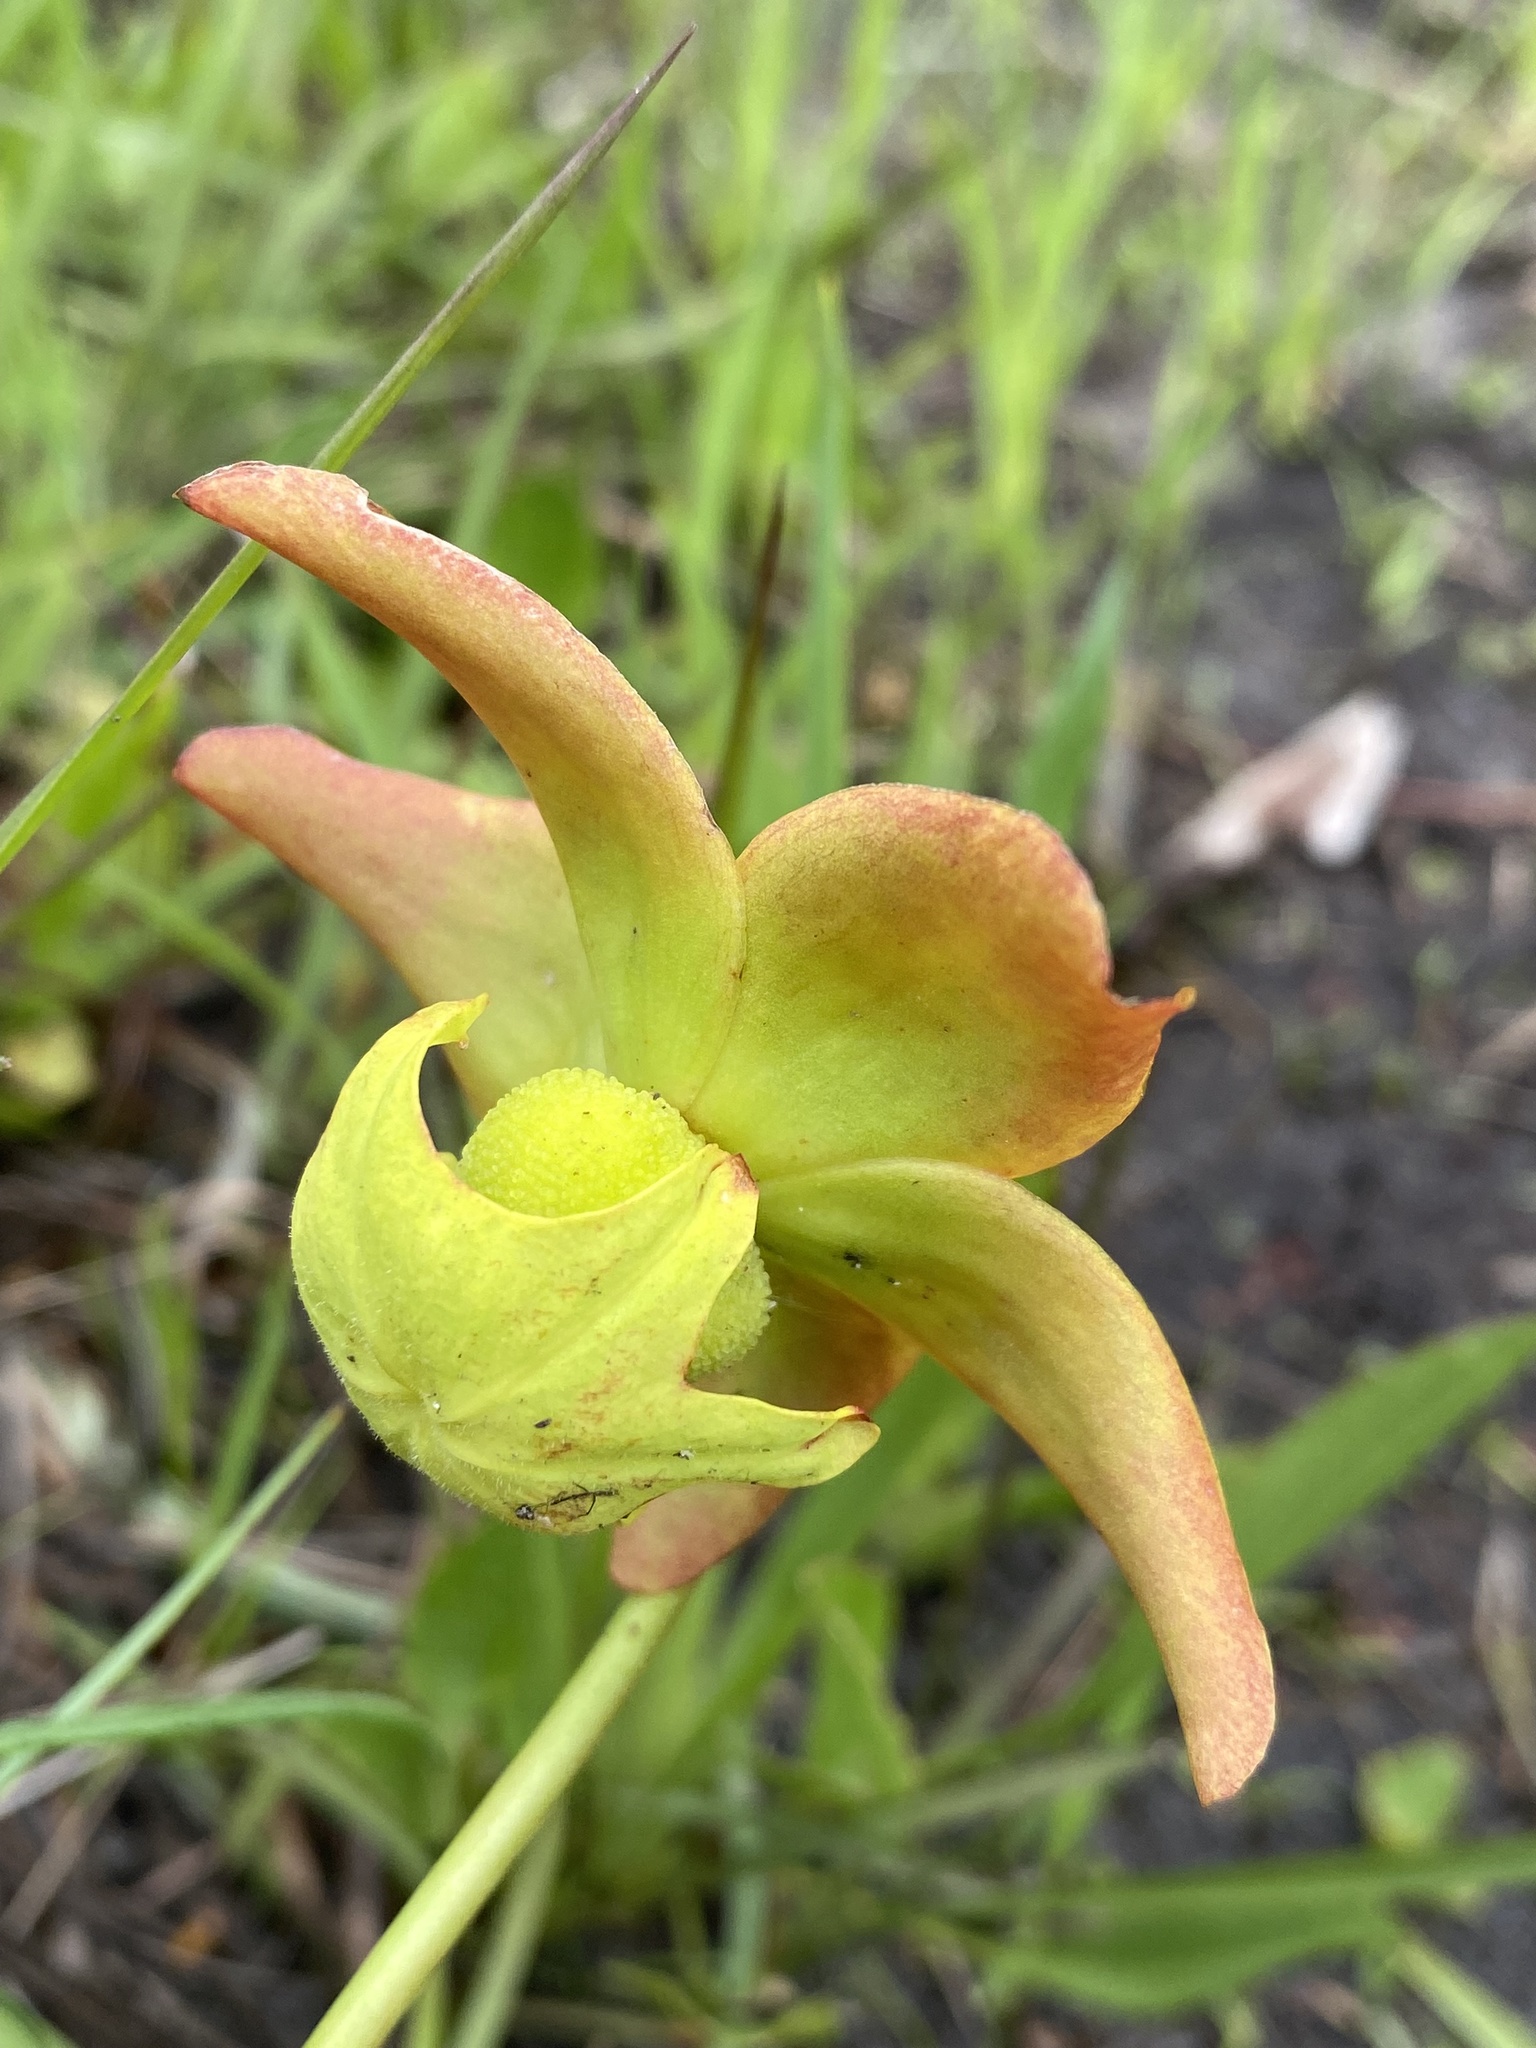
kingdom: Plantae
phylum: Tracheophyta
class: Magnoliopsida
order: Ericales
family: Sarraceniaceae
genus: Sarracenia
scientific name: Sarracenia minor
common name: Rainhat-trumpet
